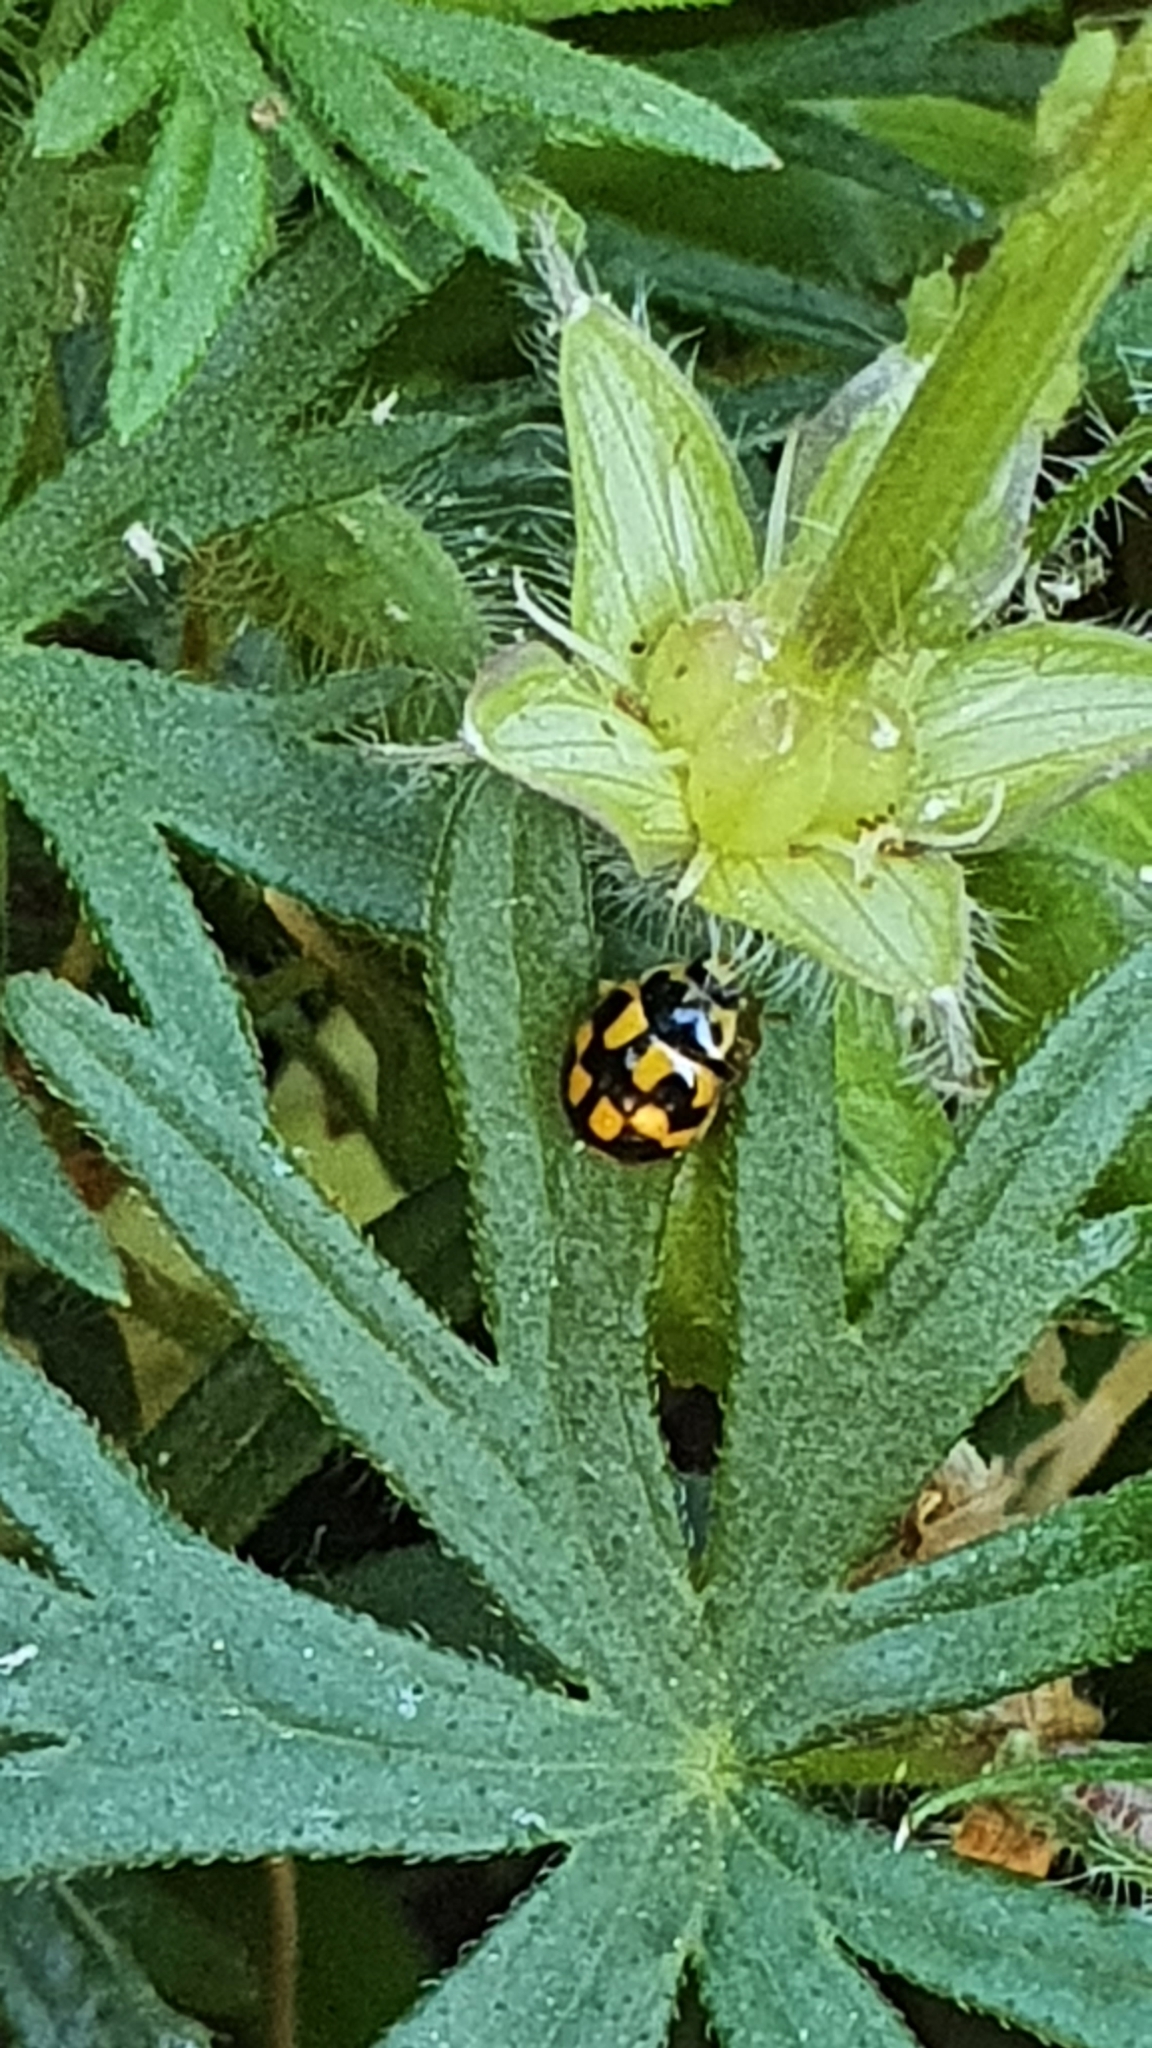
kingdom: Animalia
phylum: Arthropoda
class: Insecta
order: Coleoptera
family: Coccinellidae
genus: Propylaea
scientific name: Propylaea quatuordecimpunctata
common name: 14-spotted ladybird beetle
